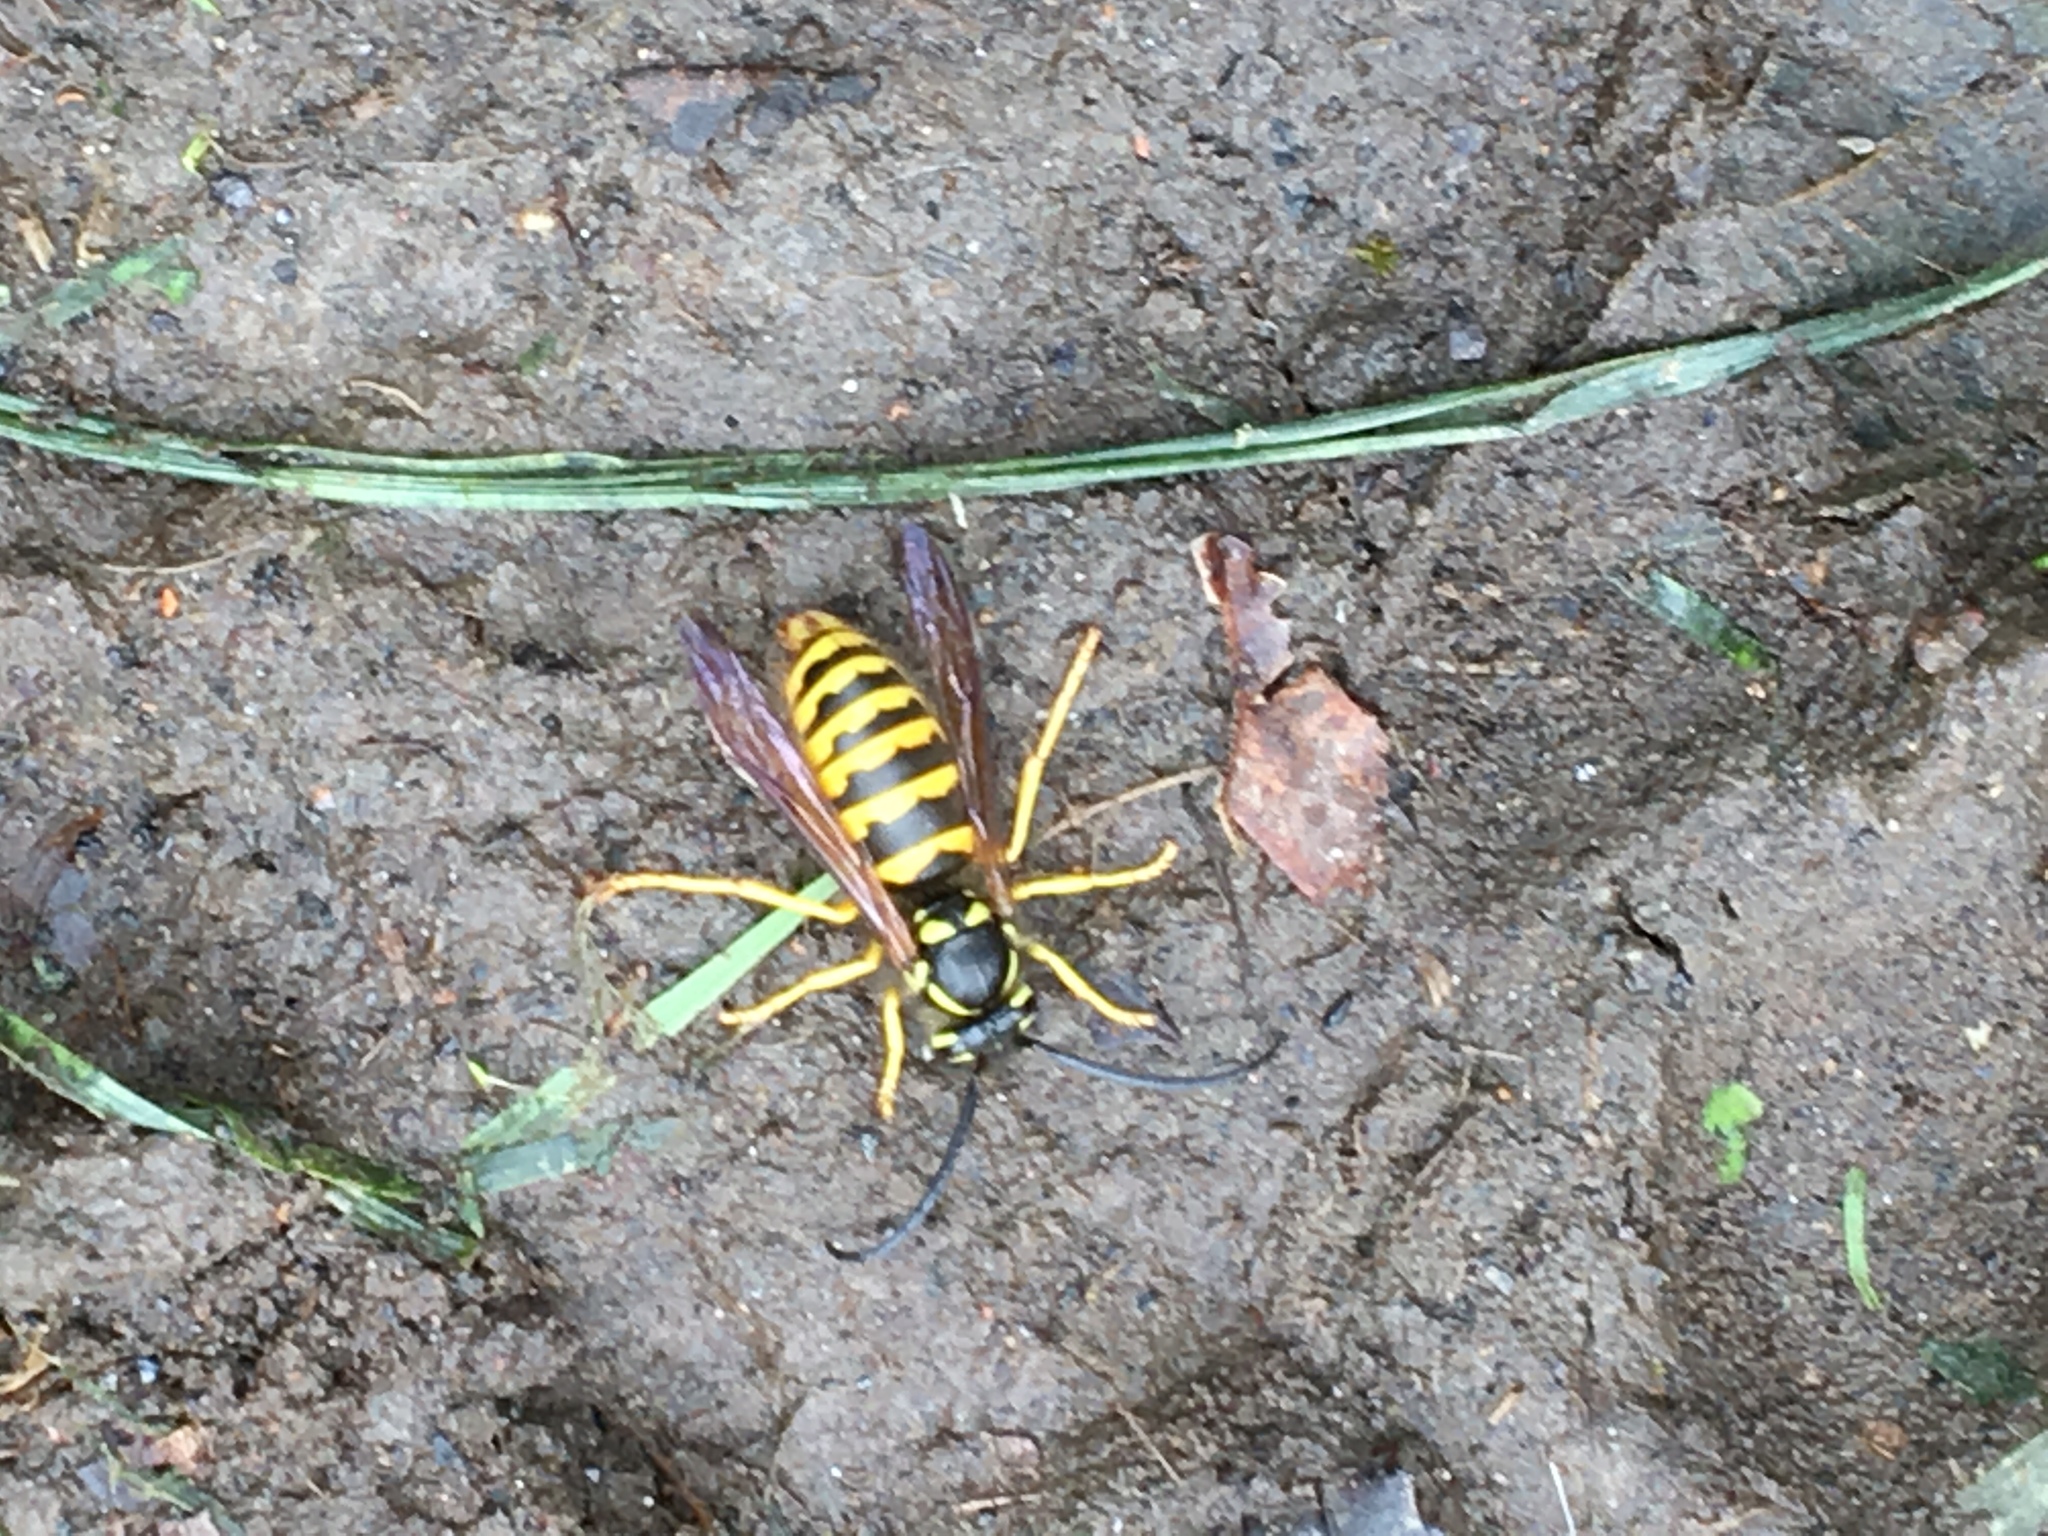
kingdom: Animalia
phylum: Arthropoda
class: Insecta
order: Hymenoptera
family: Vespidae
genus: Vespula
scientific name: Vespula flavopilosa
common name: Downy yellowjacket
